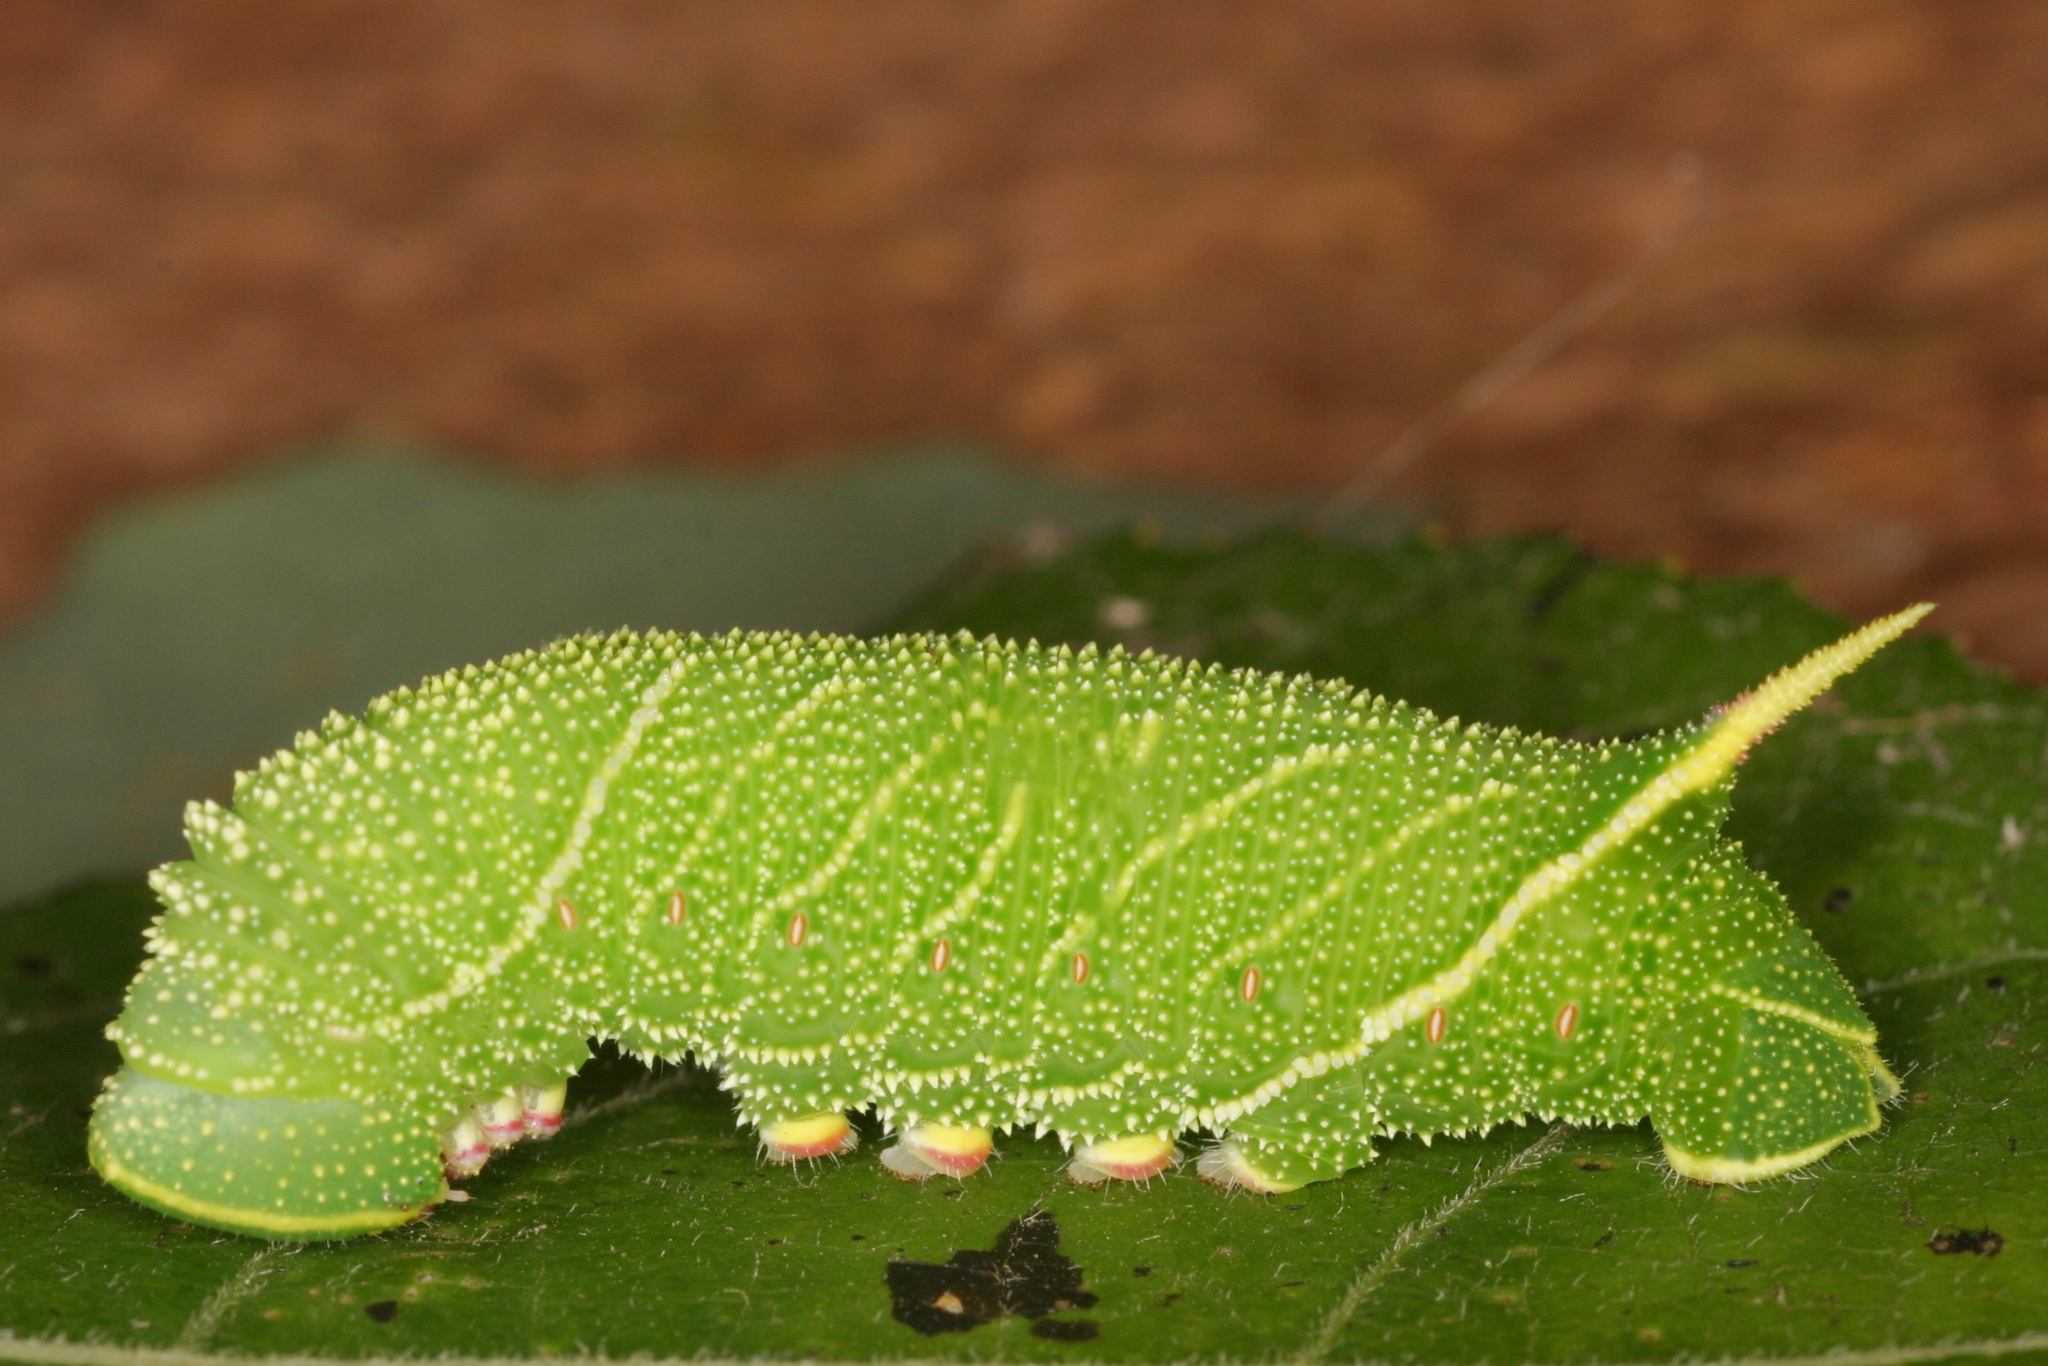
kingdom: Animalia
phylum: Arthropoda
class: Insecta
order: Lepidoptera
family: Sphingidae
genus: Laothoe
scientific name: Laothoe populi
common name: Poplar hawk-moth
